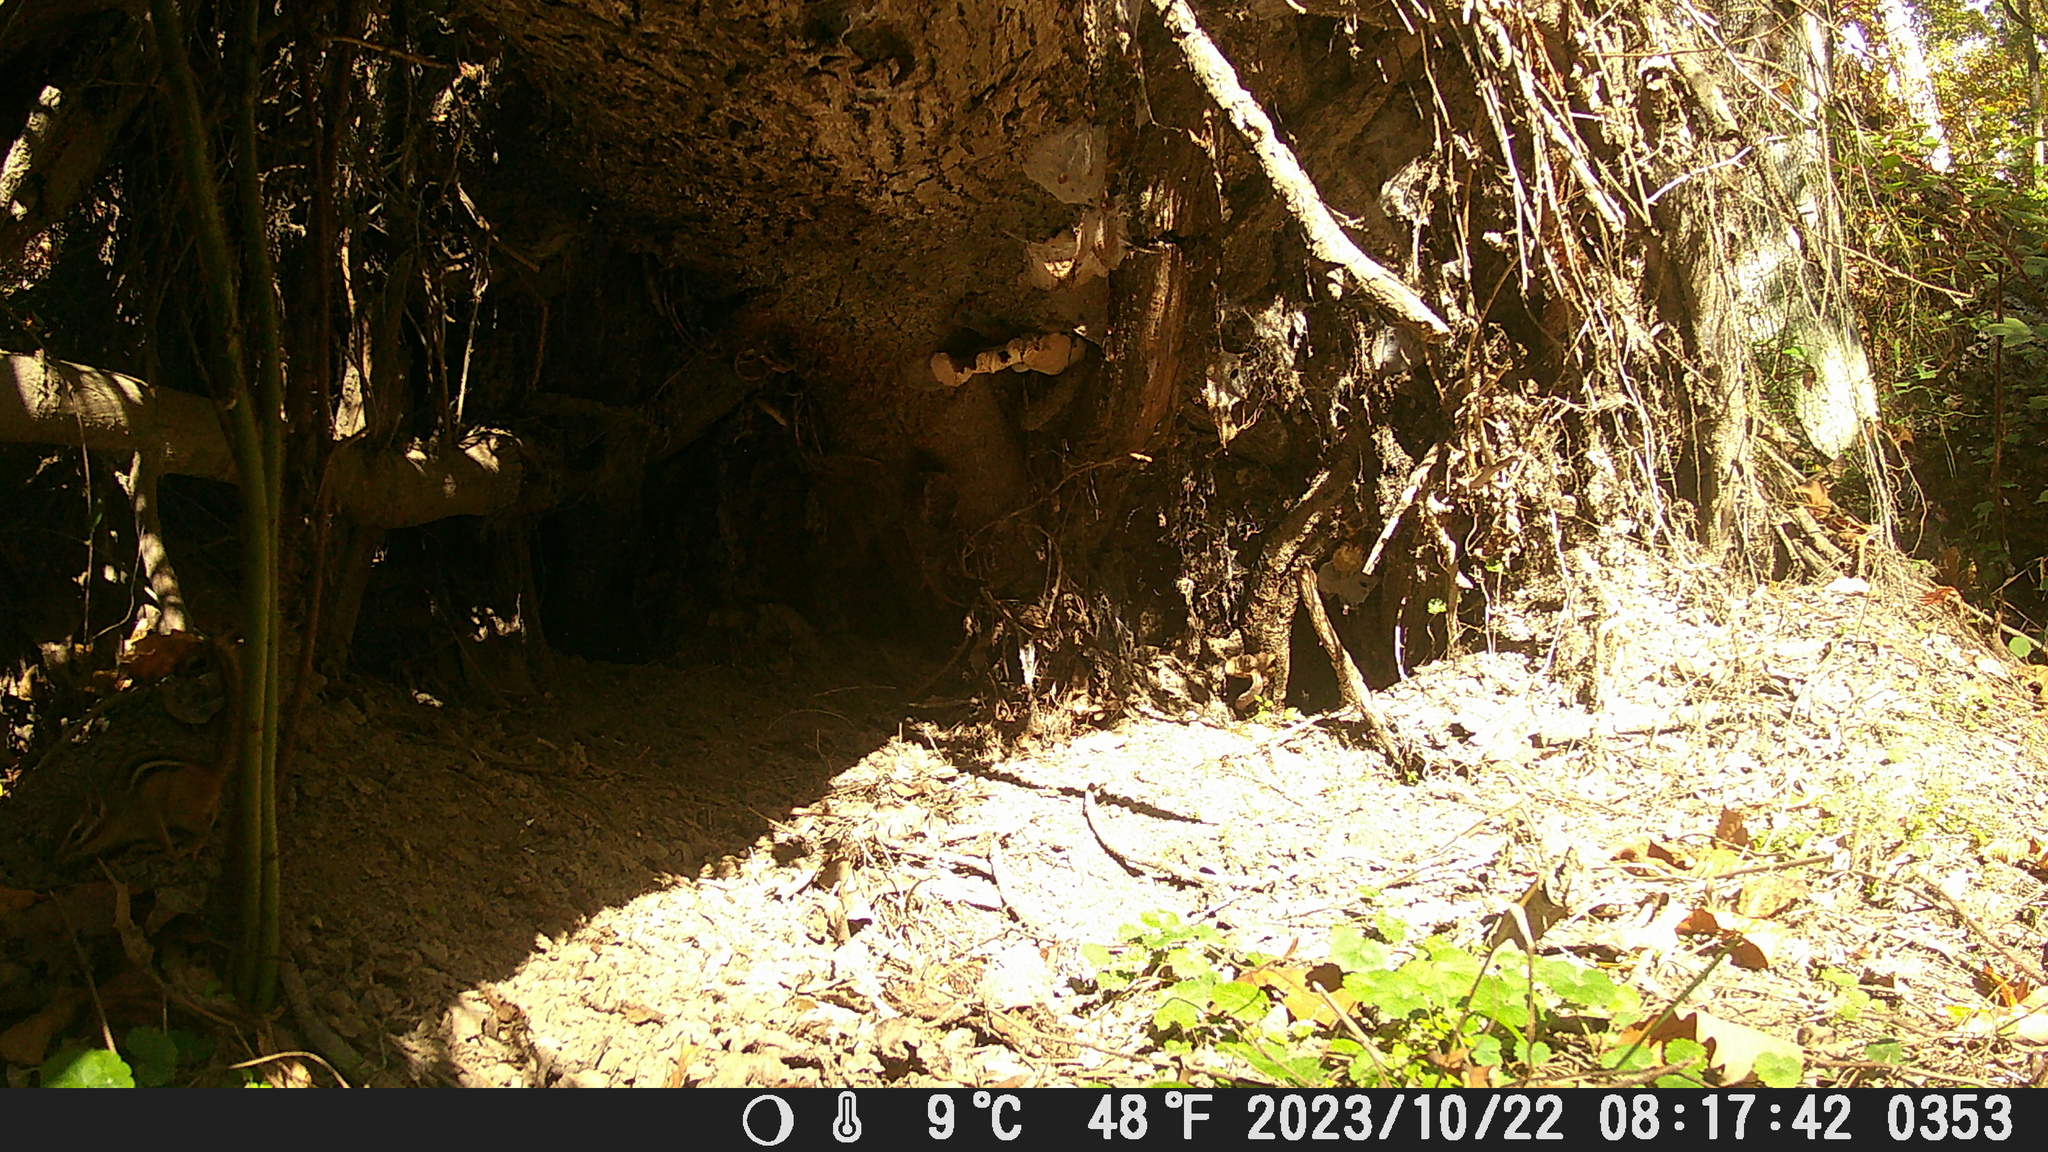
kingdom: Animalia
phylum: Chordata
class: Mammalia
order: Rodentia
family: Sciuridae
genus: Tamias
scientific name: Tamias striatus
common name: Eastern chipmunk
